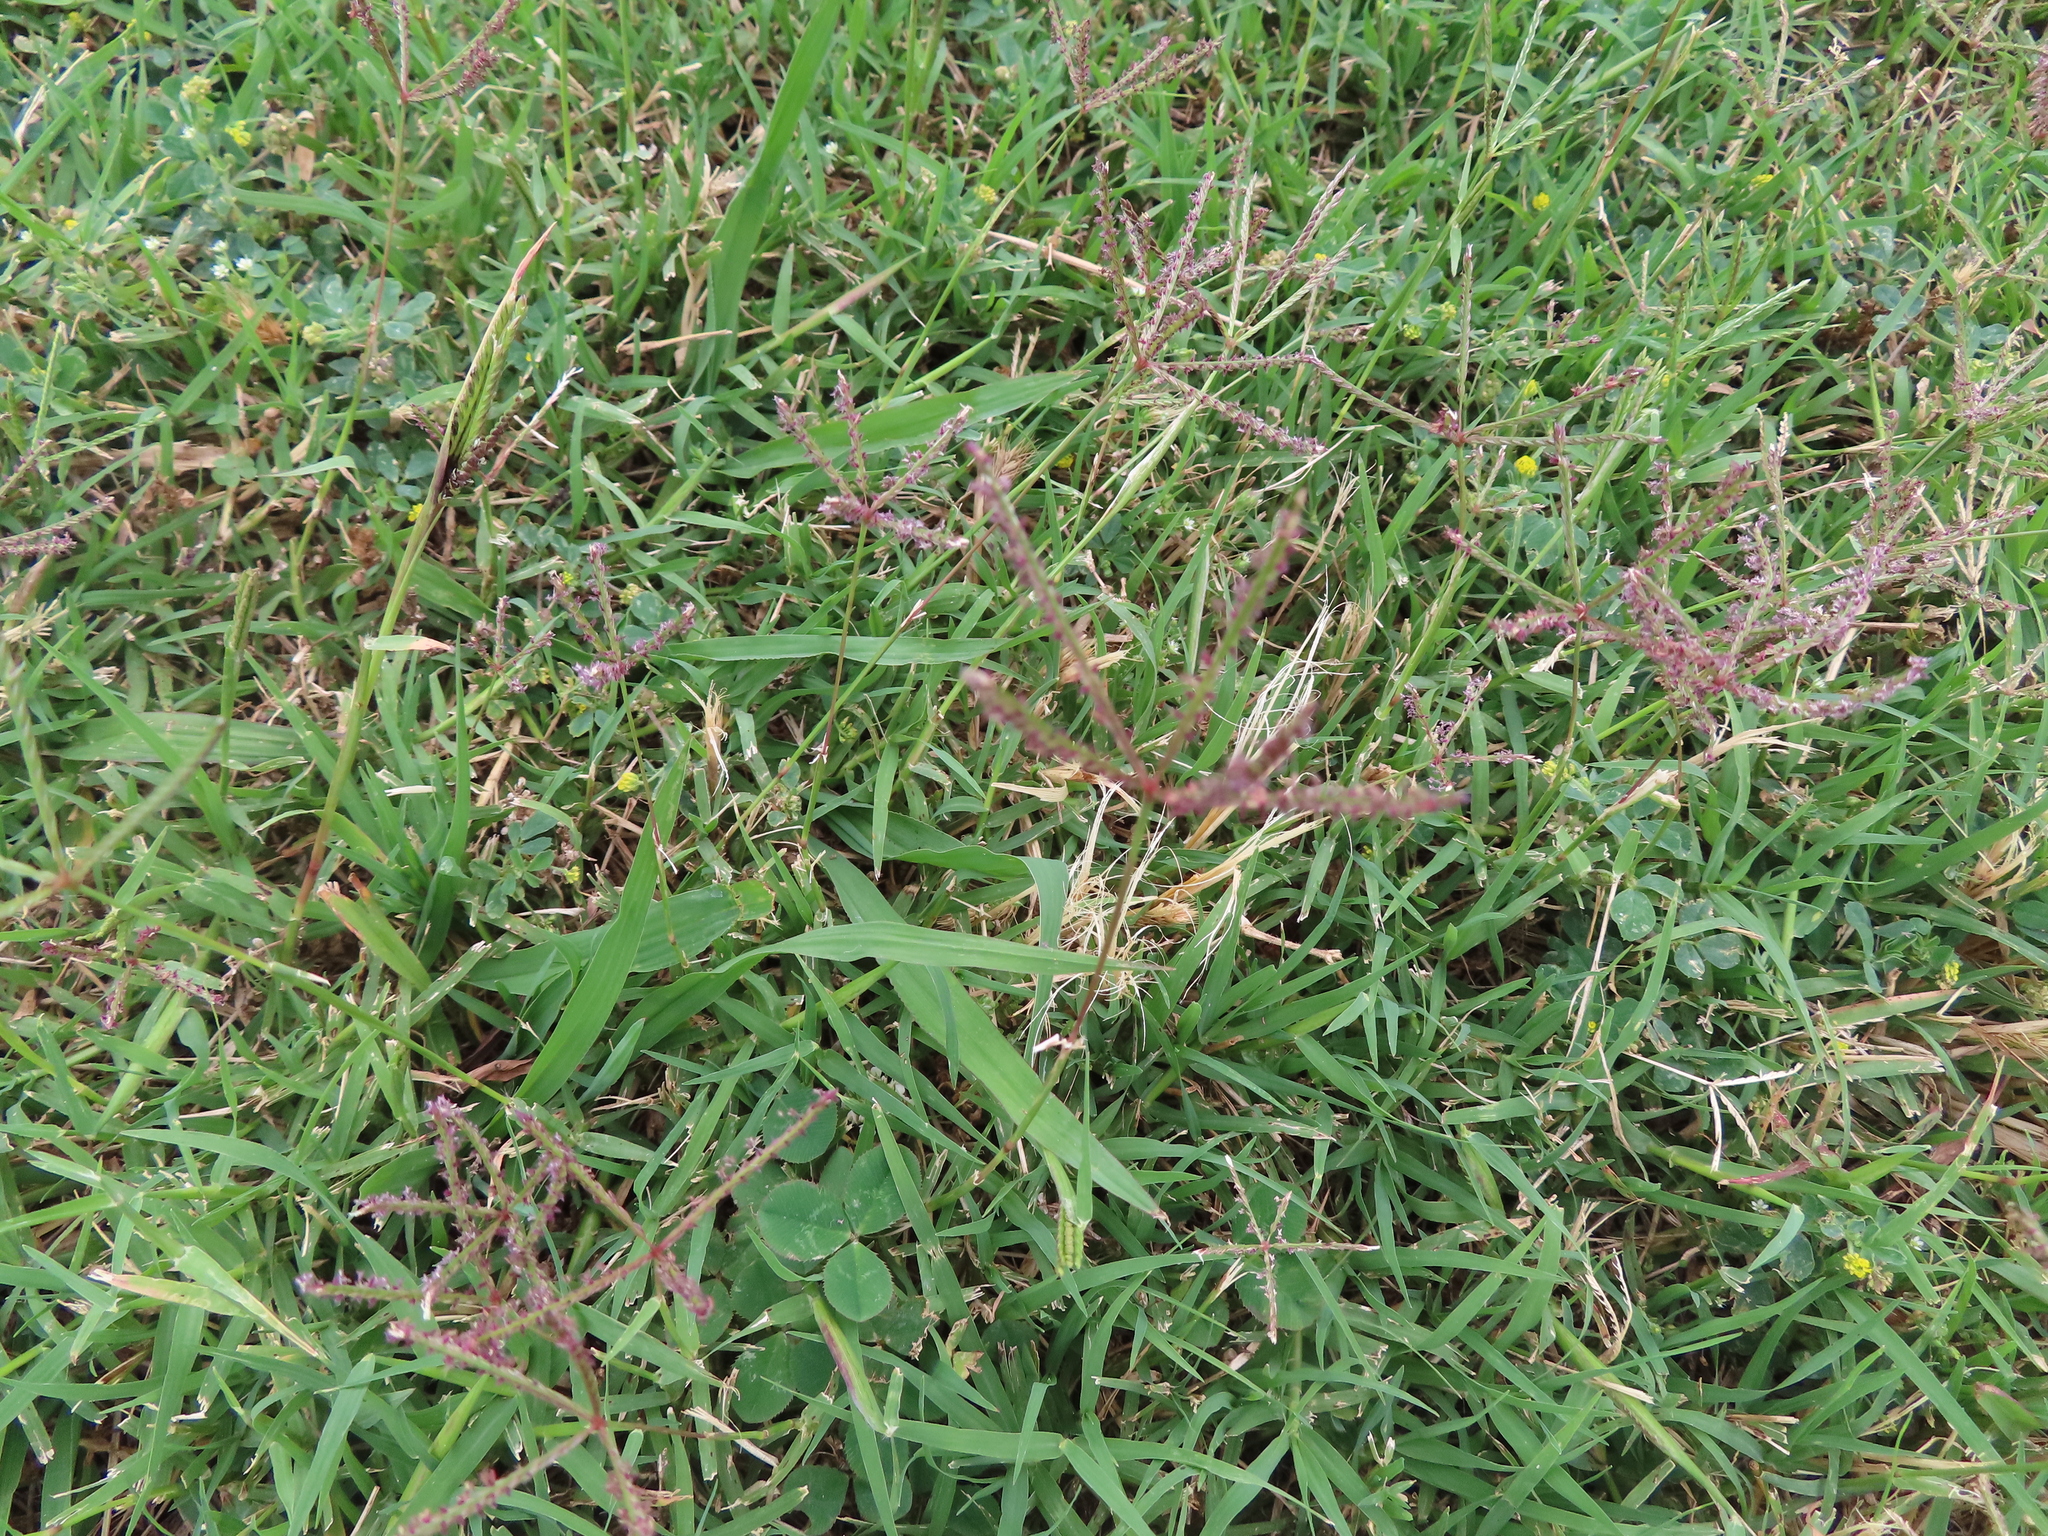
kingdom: Plantae
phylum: Tracheophyta
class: Liliopsida
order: Poales
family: Poaceae
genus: Cynodon
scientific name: Cynodon dactylon
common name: Bermuda grass
